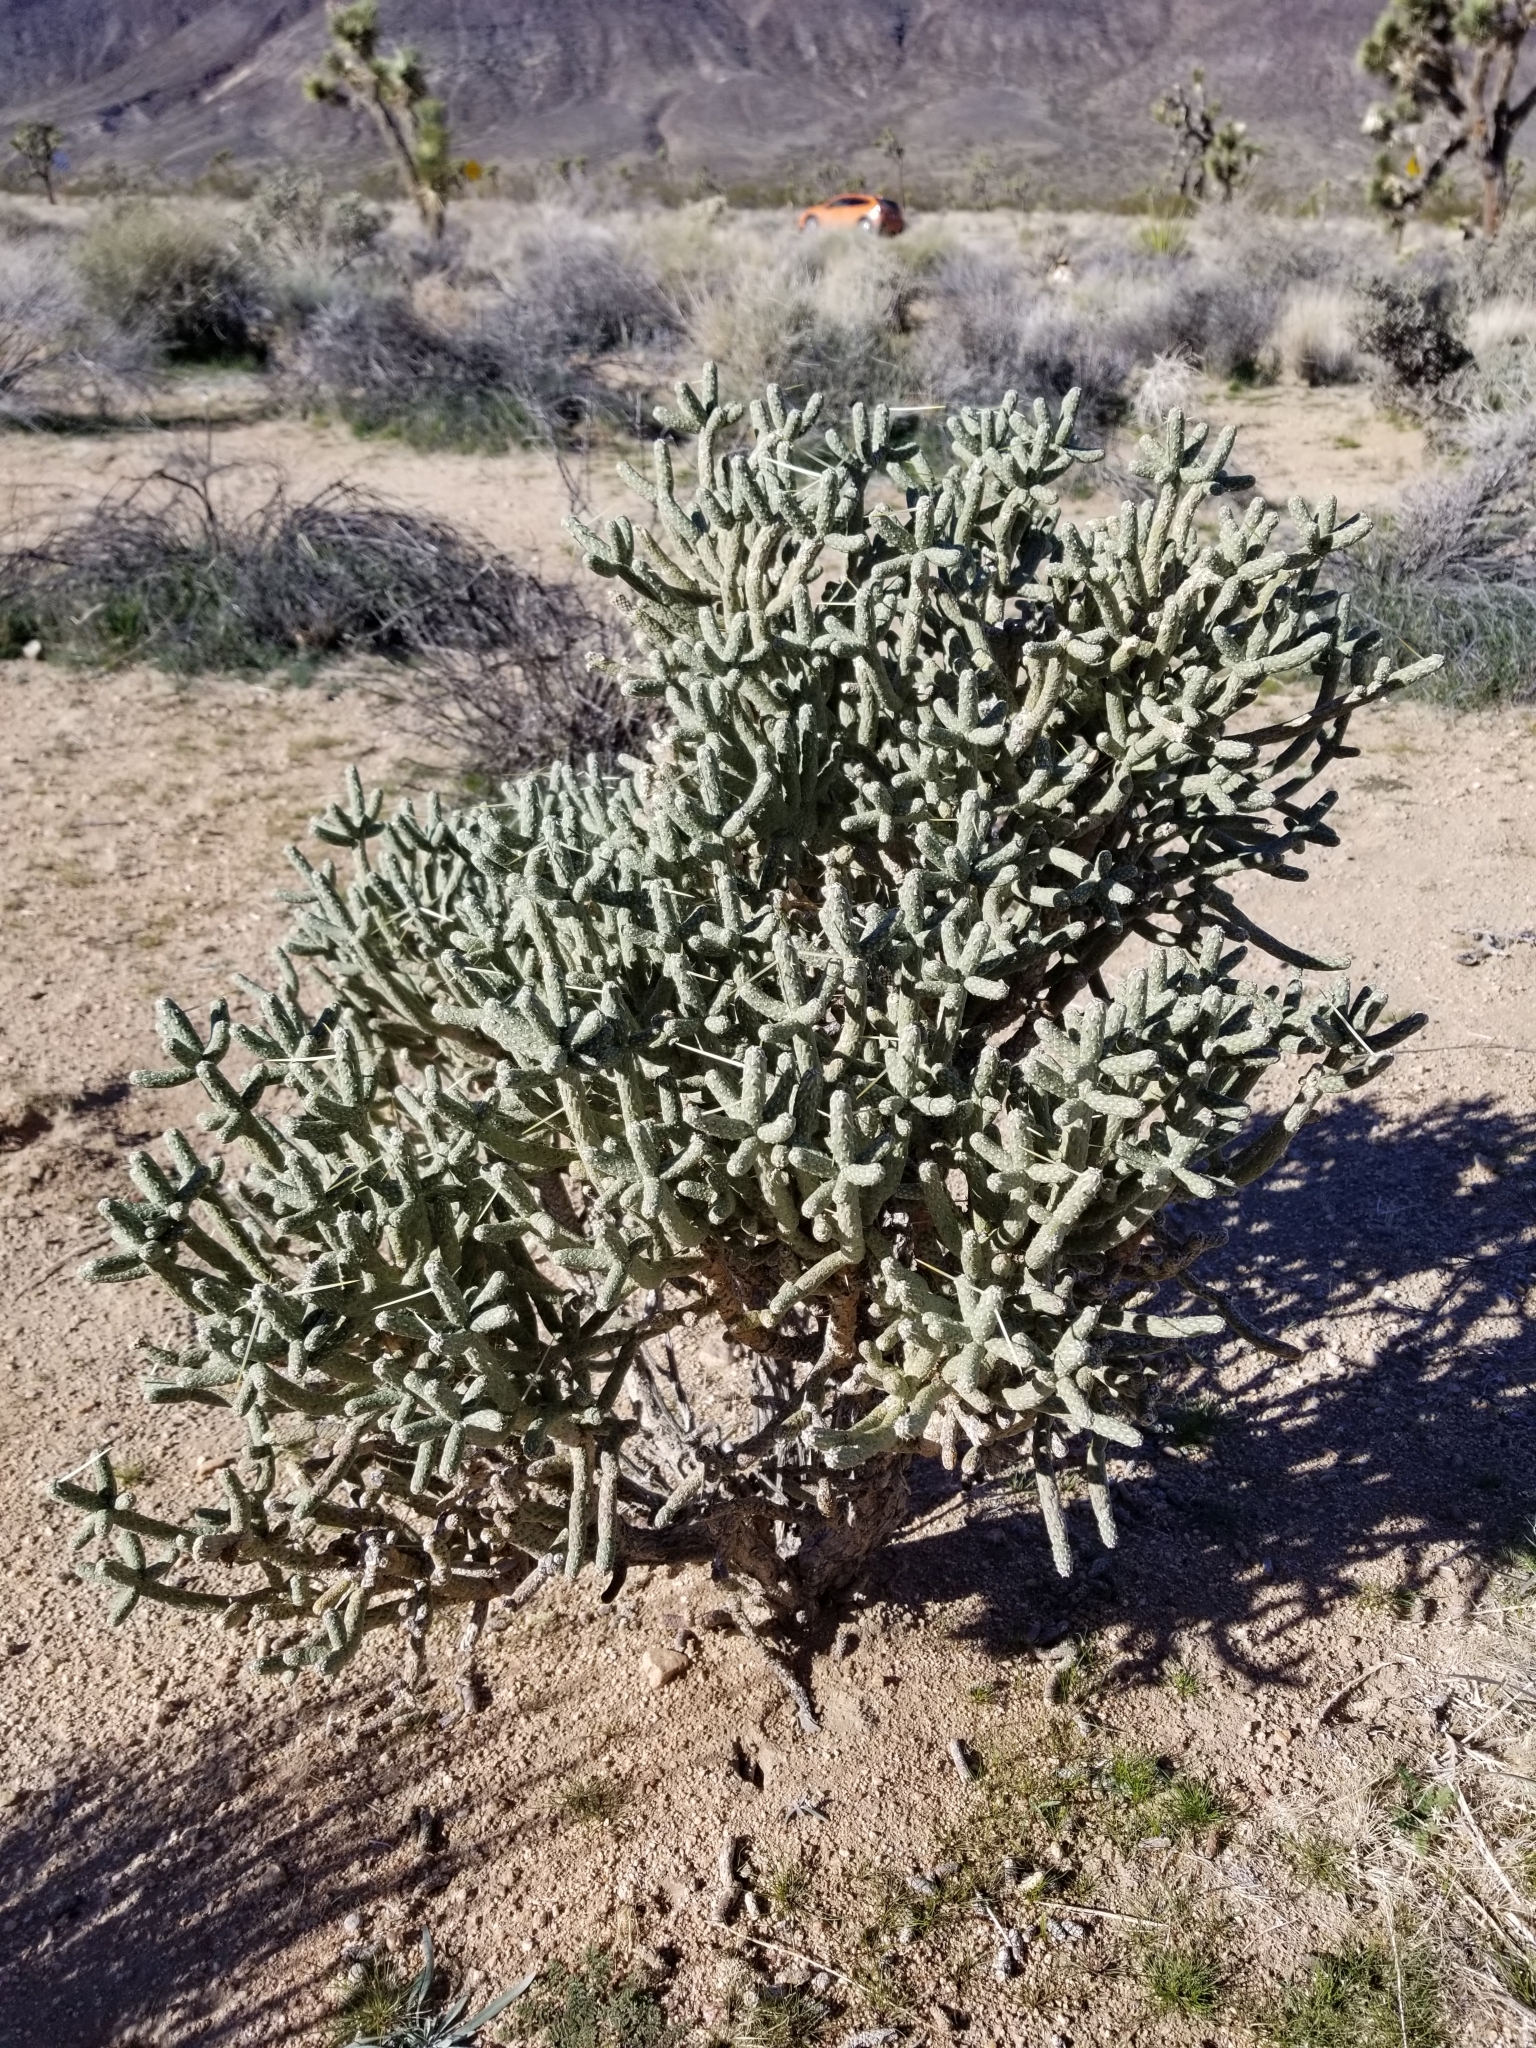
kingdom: Plantae
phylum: Tracheophyta
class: Magnoliopsida
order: Caryophyllales
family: Cactaceae
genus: Cylindropuntia
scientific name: Cylindropuntia ramosissima
